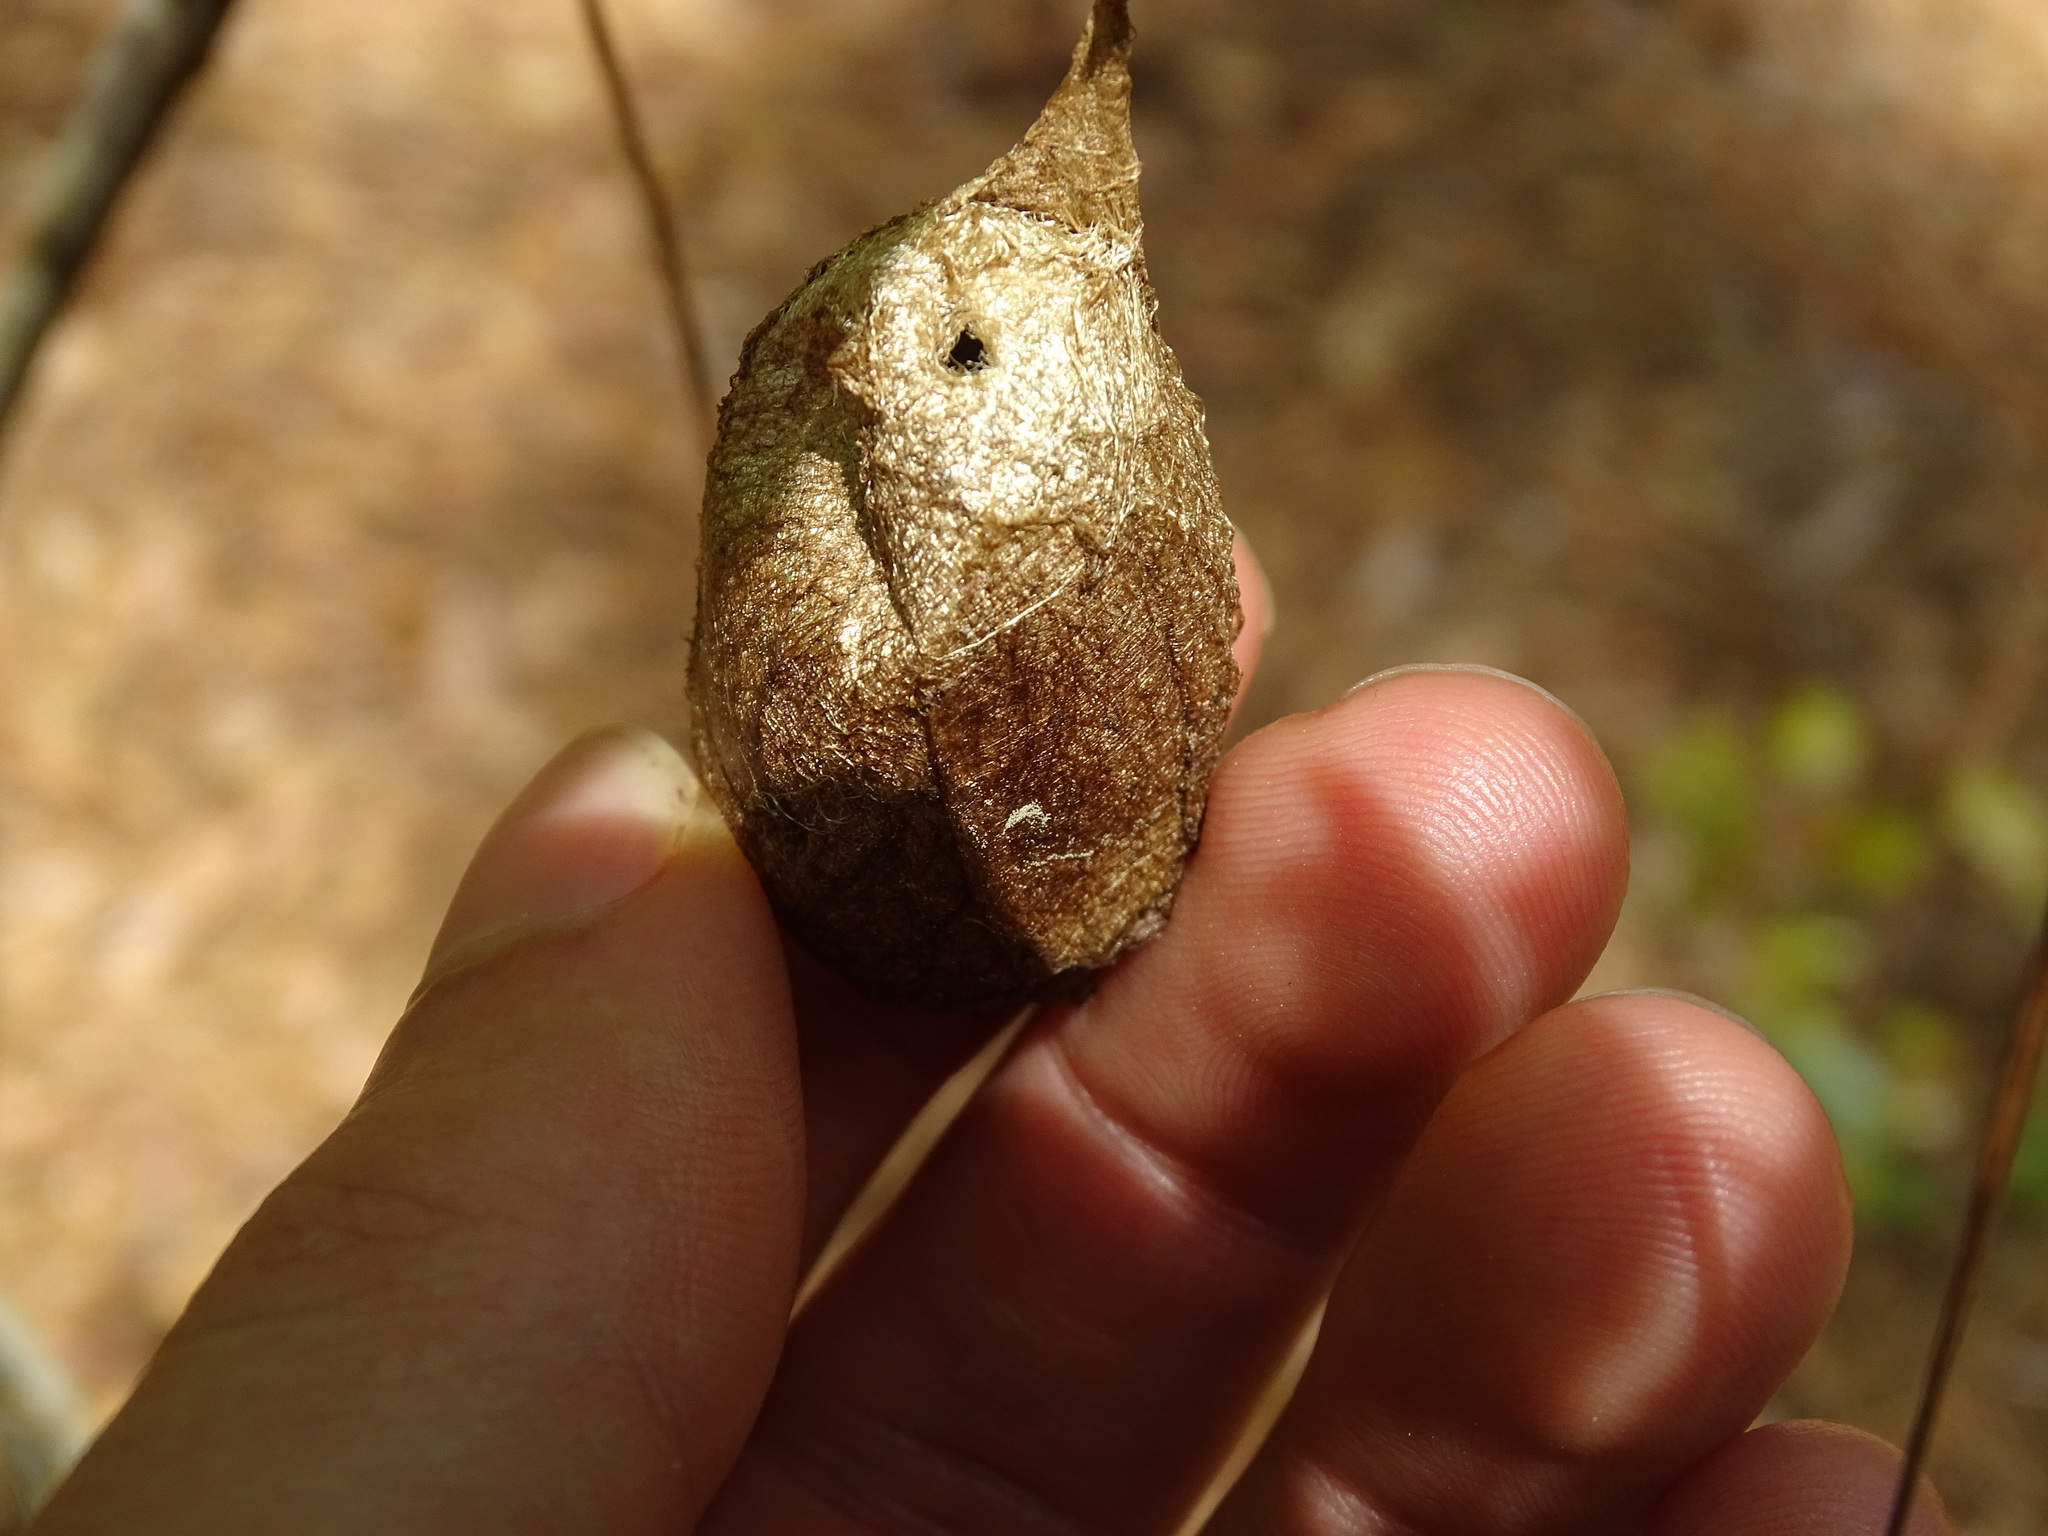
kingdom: Animalia
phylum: Arthropoda
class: Insecta
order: Lepidoptera
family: Saturniidae
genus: Antheraea
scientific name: Antheraea polyphemus
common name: Polyphemus moth
